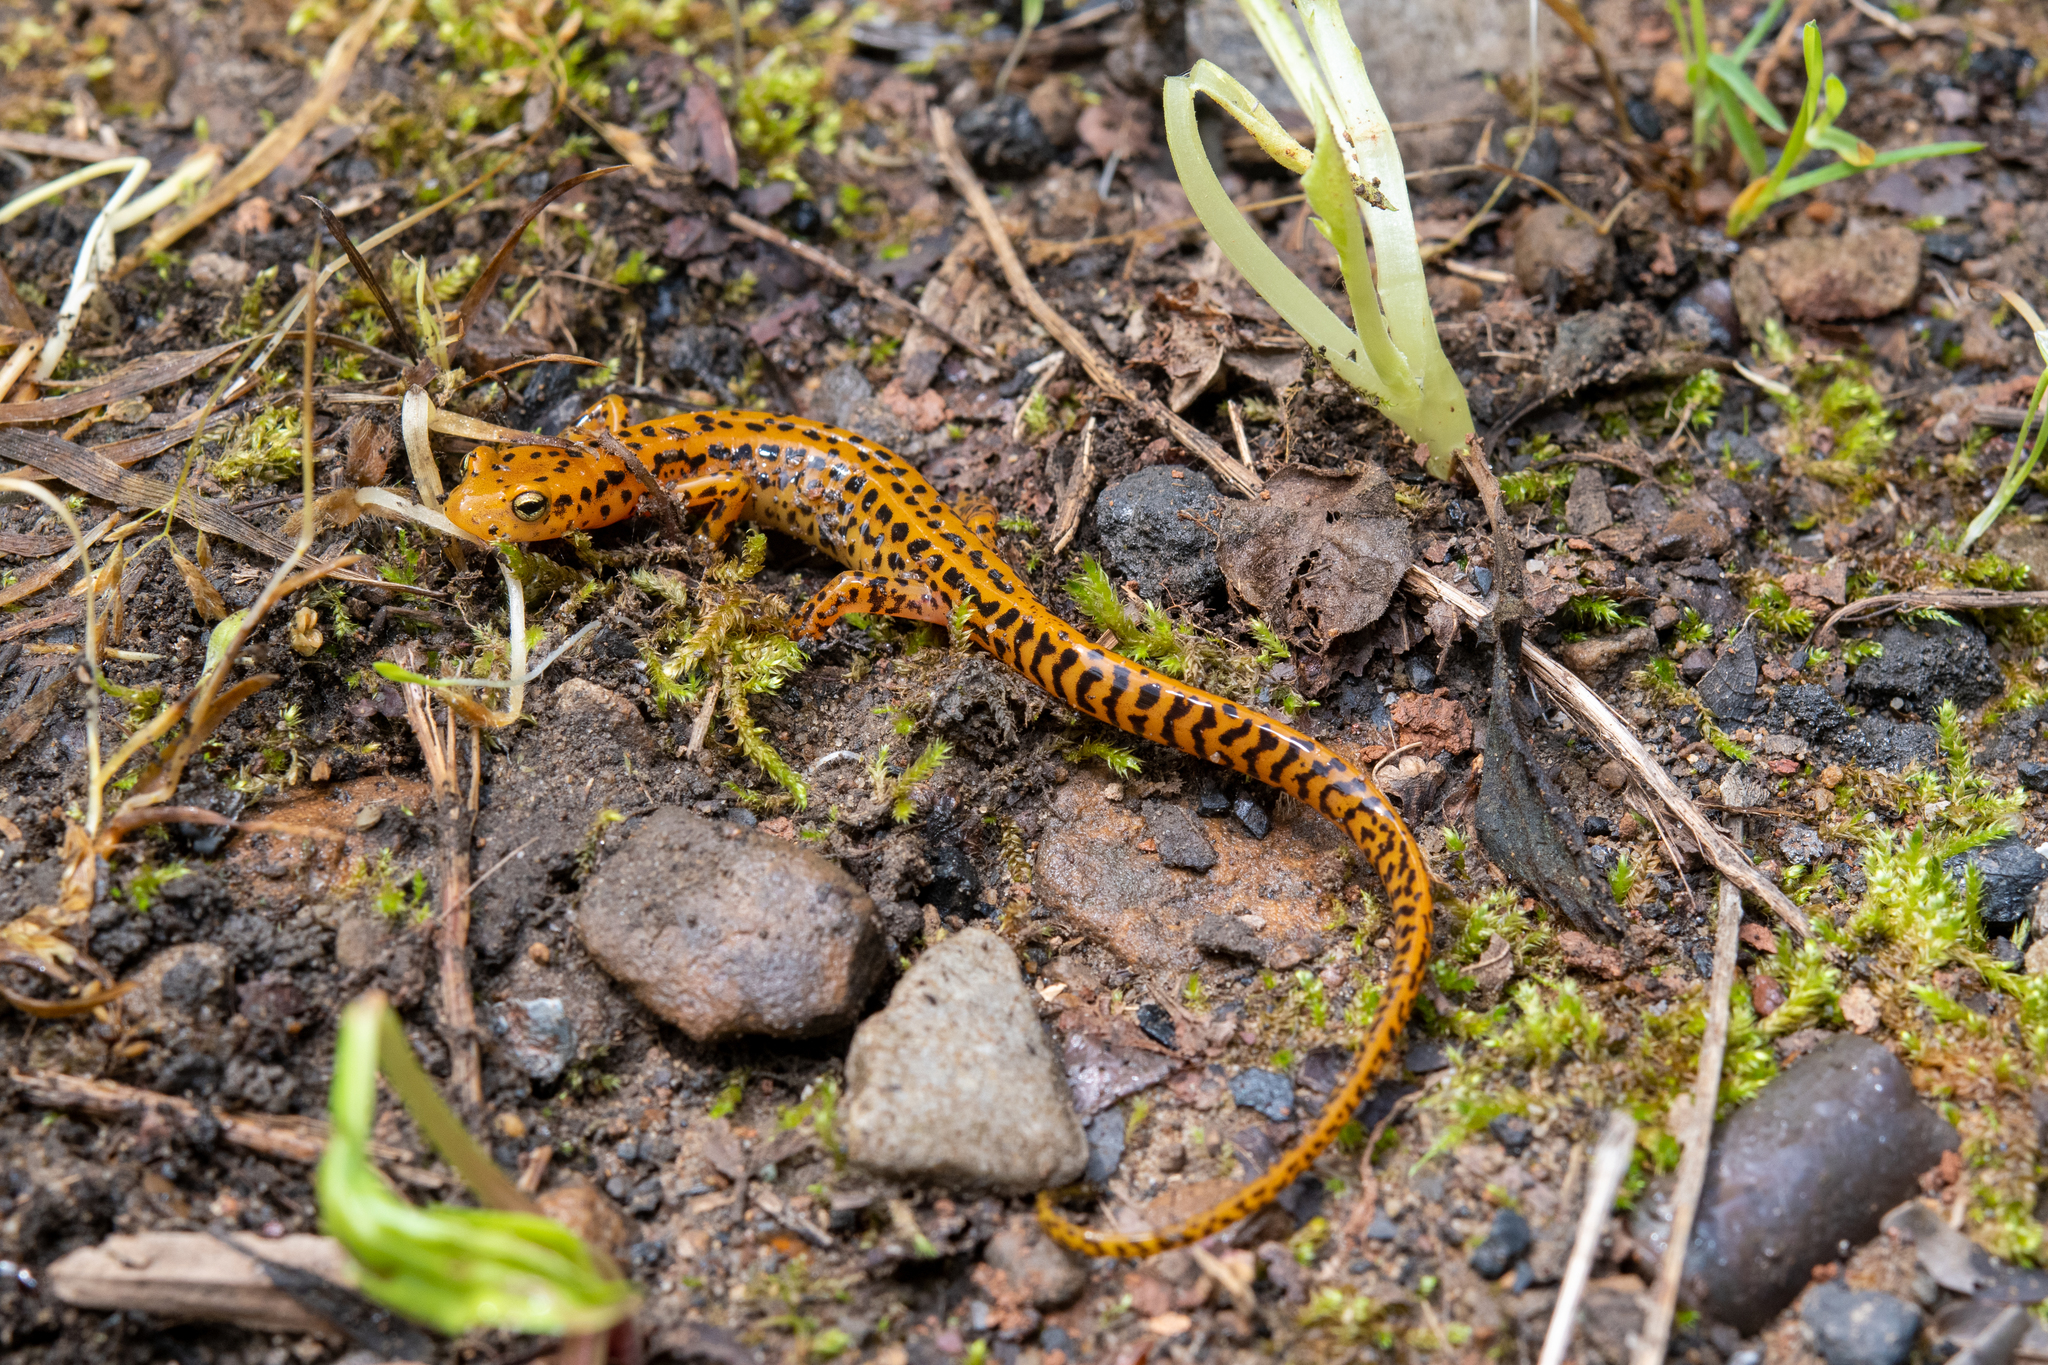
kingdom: Animalia
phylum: Chordata
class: Amphibia
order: Caudata
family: Plethodontidae
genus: Eurycea
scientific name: Eurycea longicauda
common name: Long-tailed salamander
